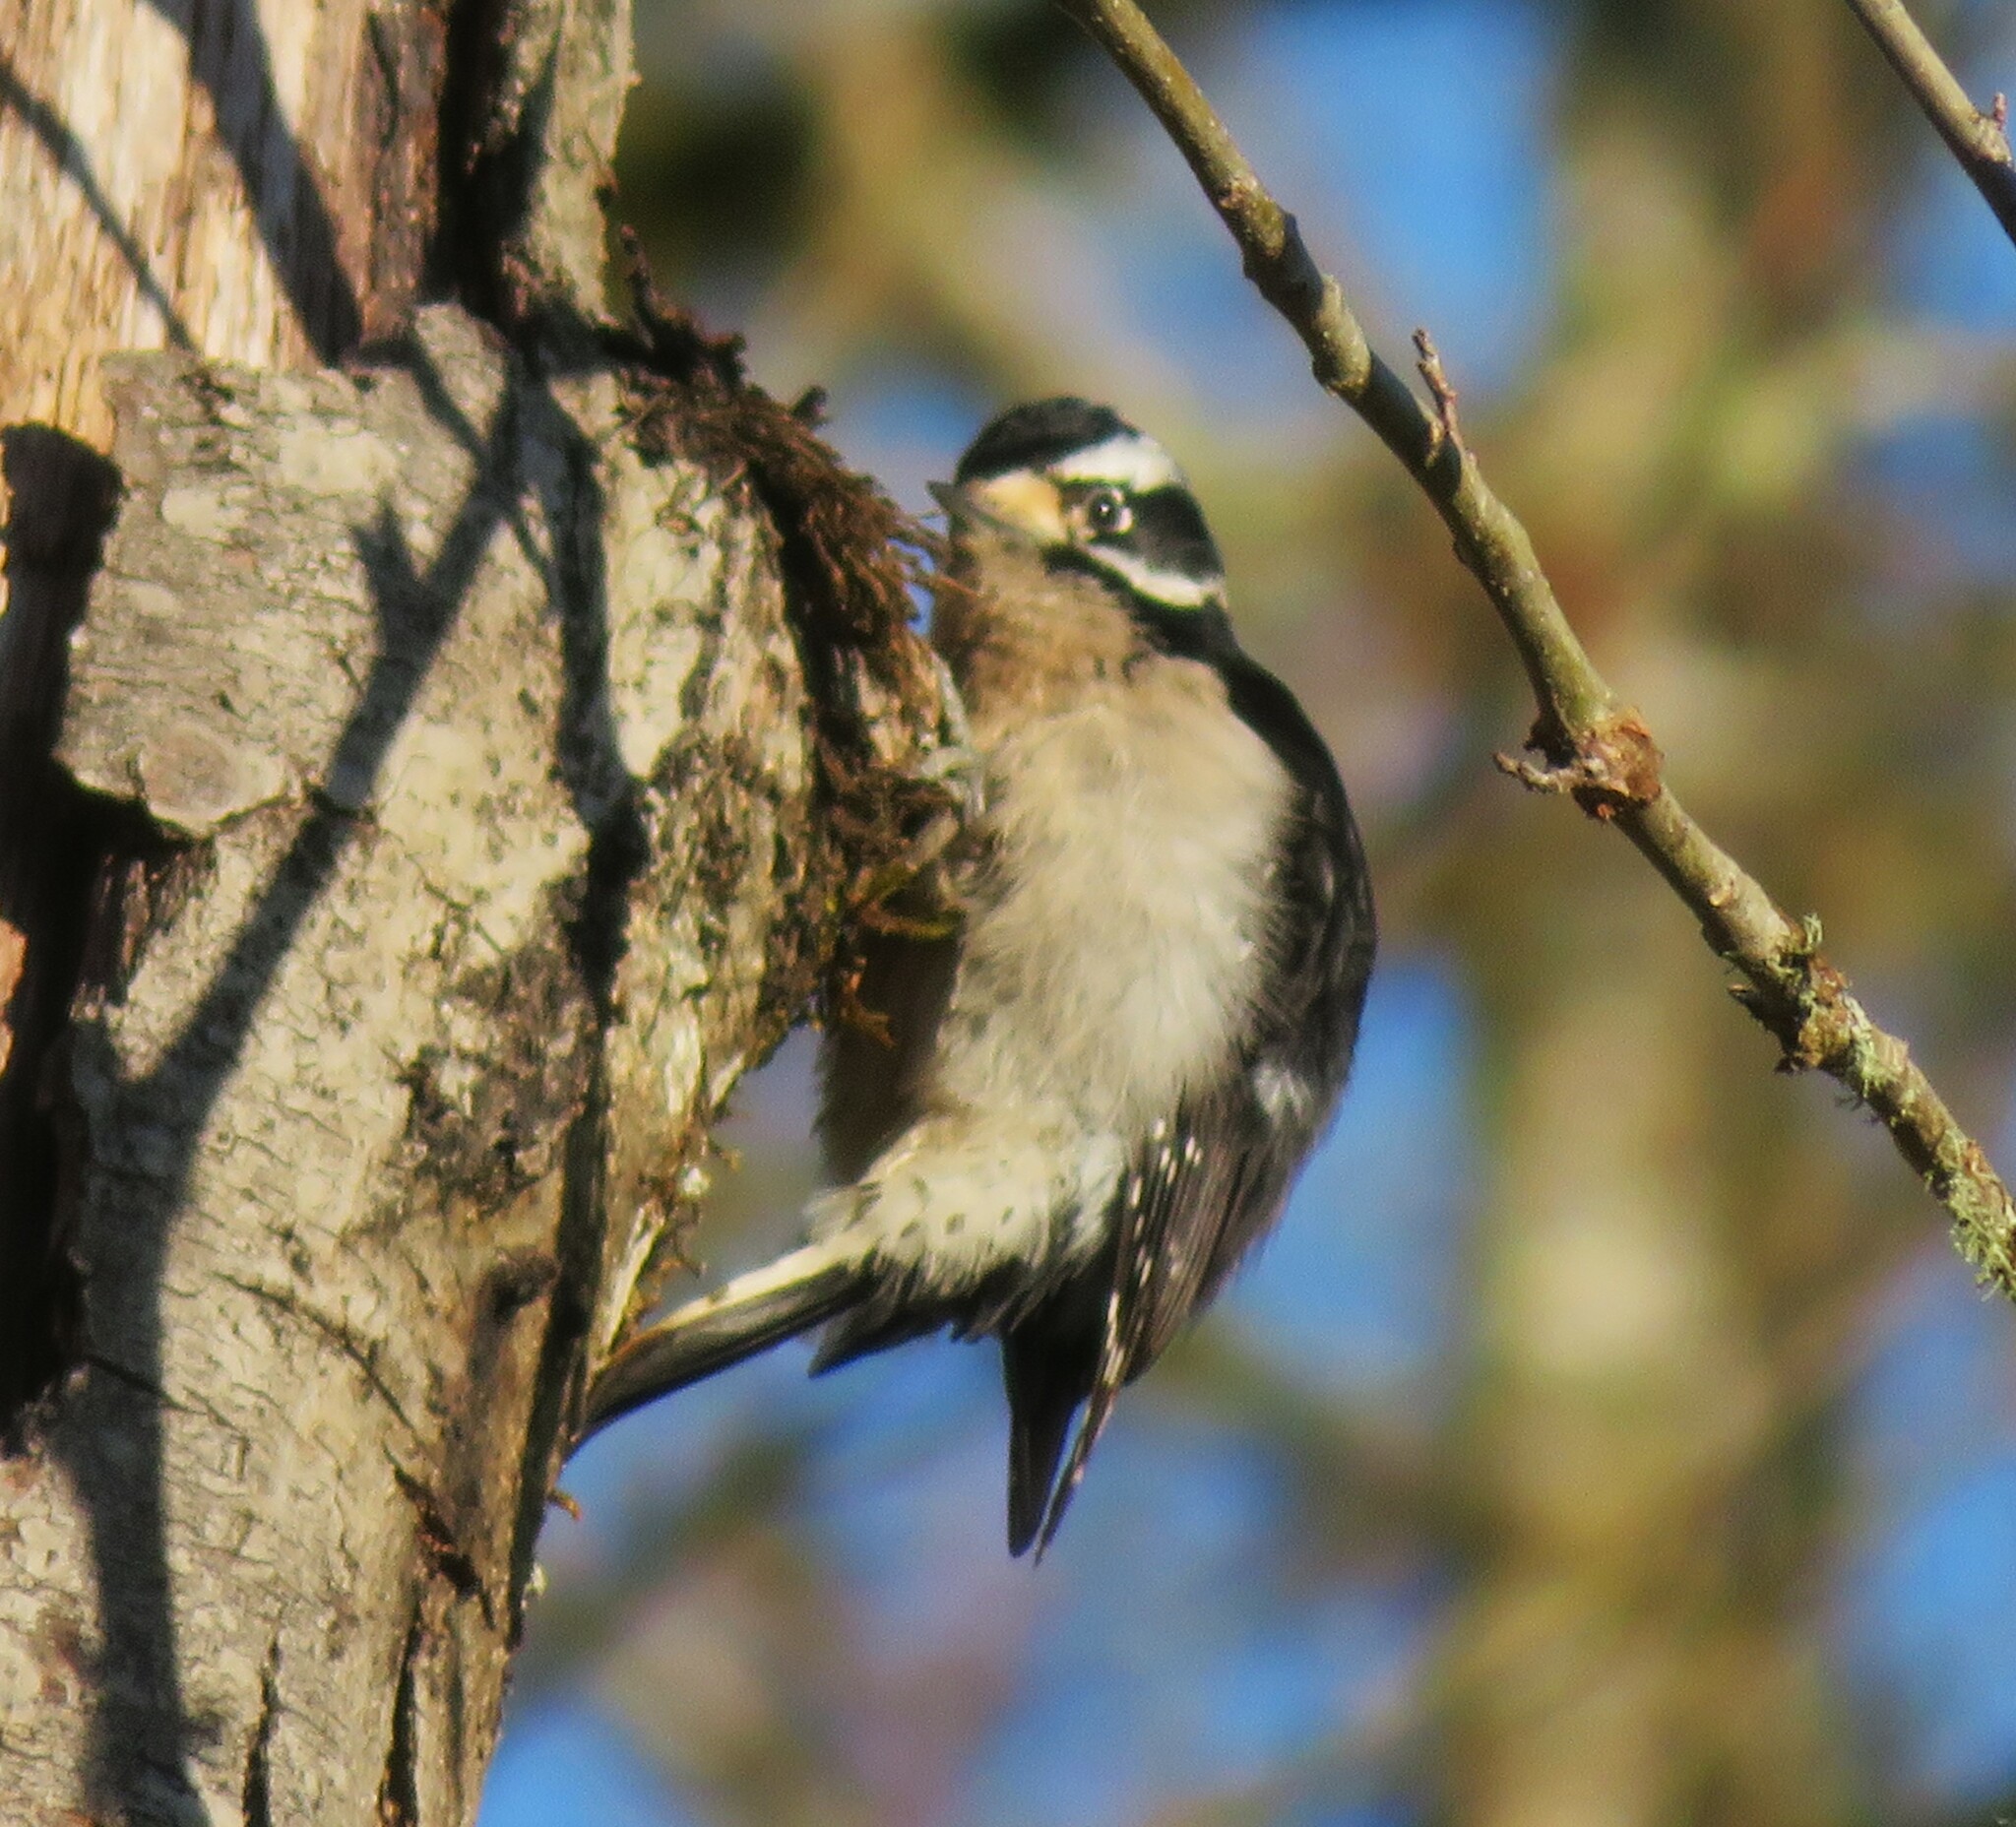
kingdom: Animalia
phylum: Chordata
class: Aves
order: Piciformes
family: Picidae
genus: Dryobates
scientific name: Dryobates pubescens
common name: Downy woodpecker
